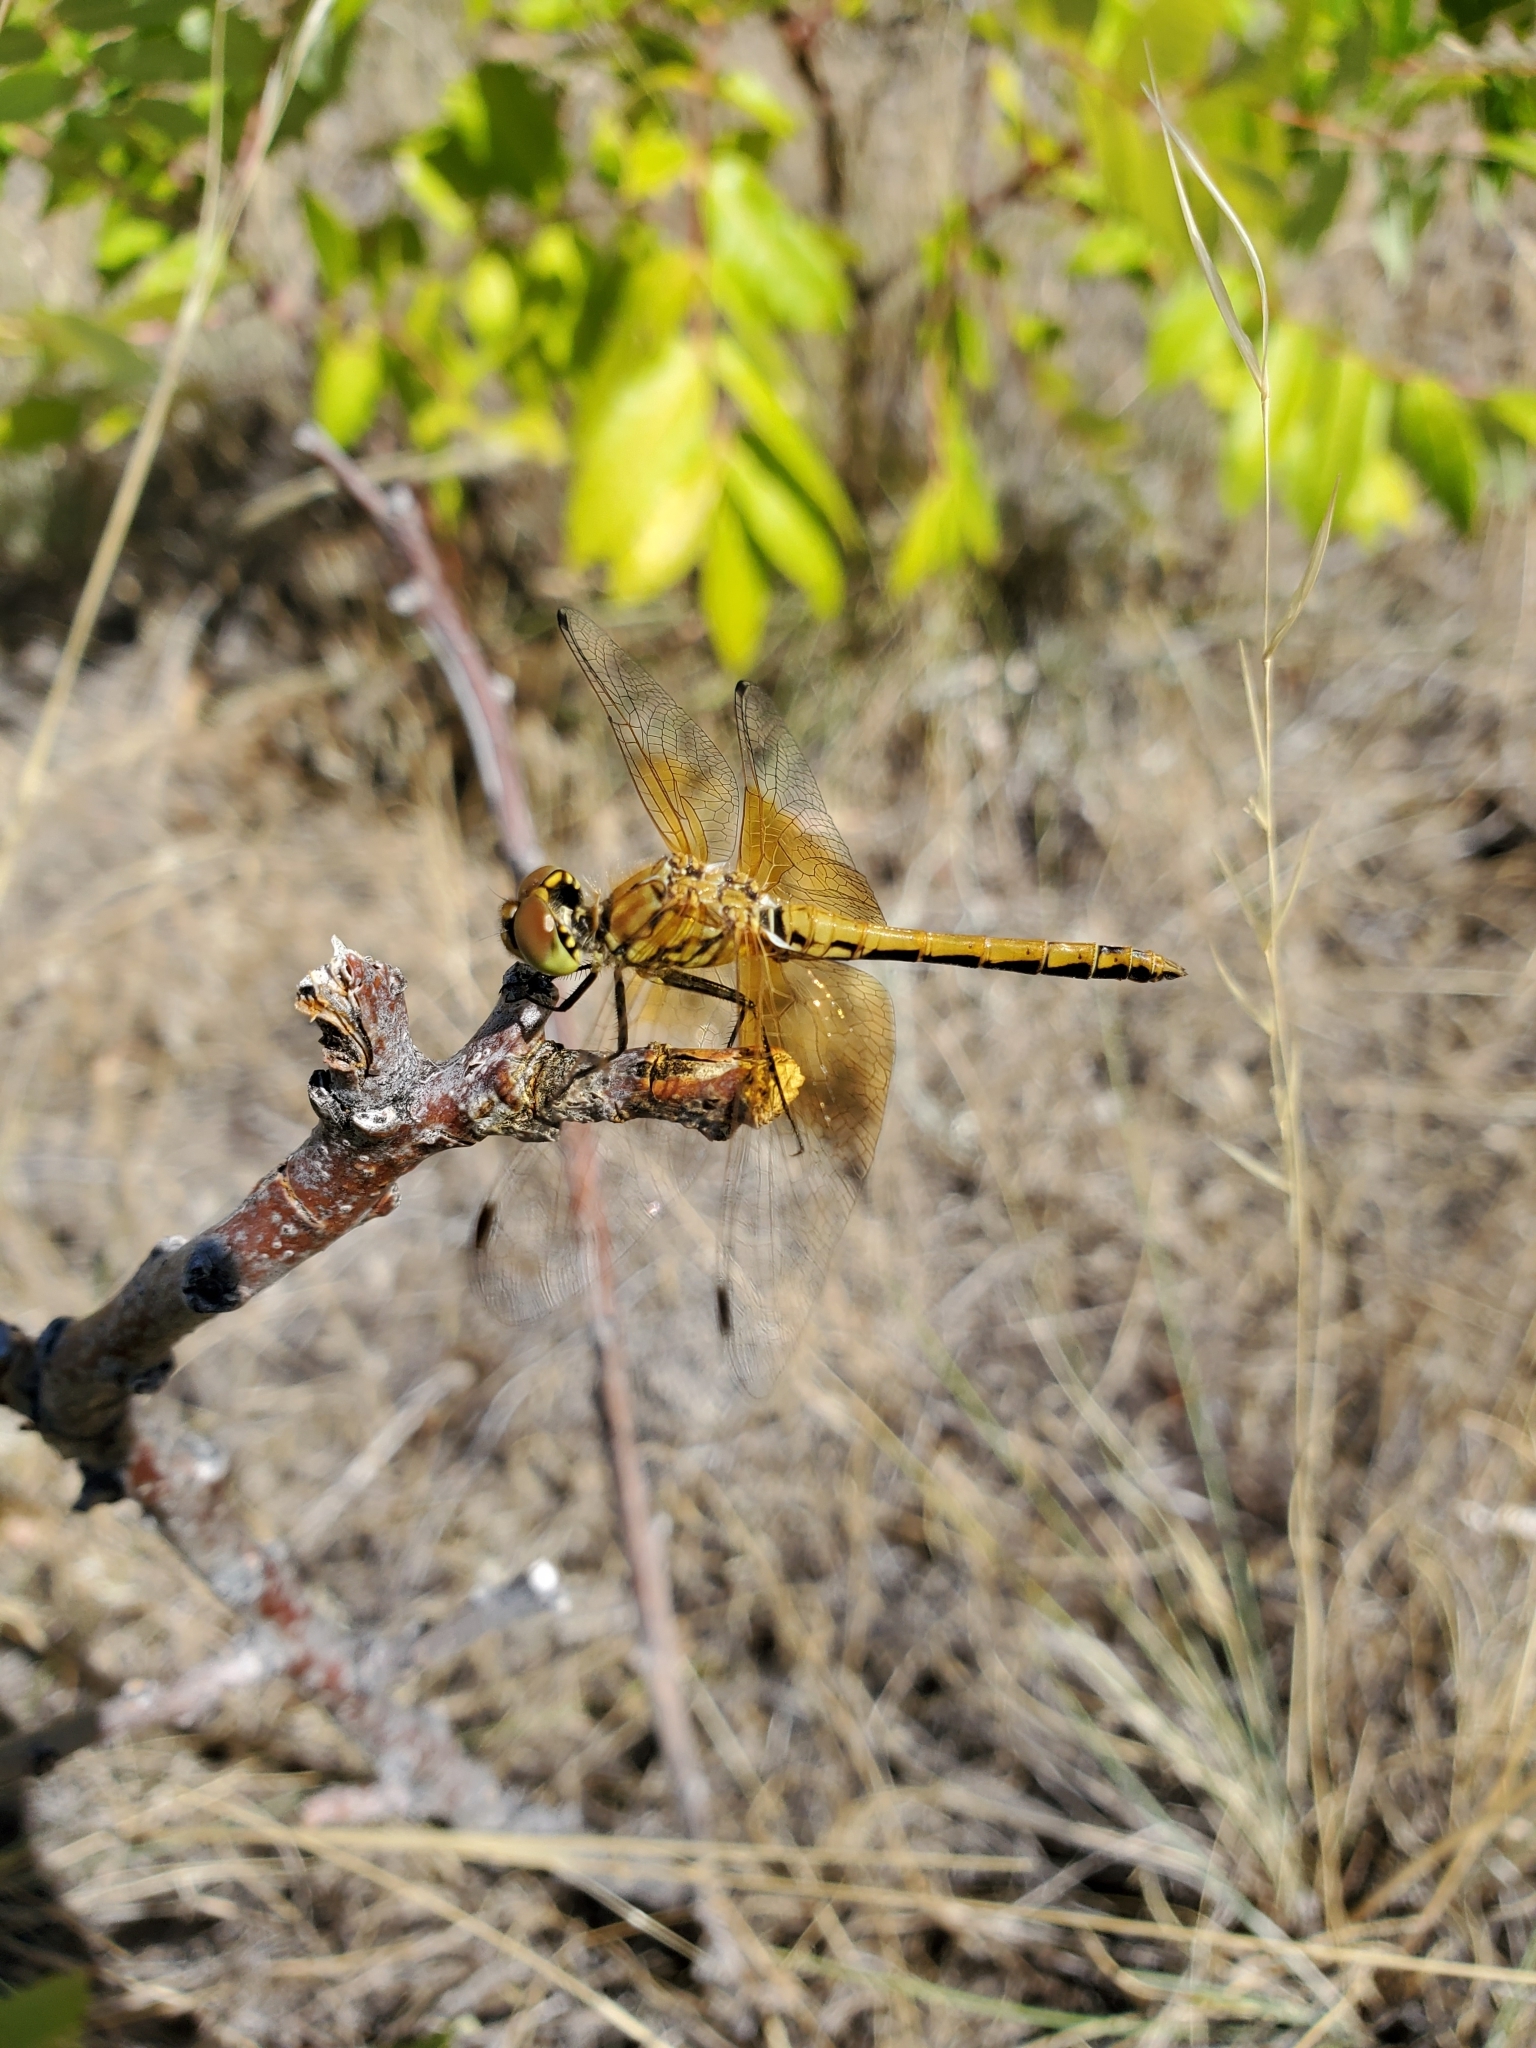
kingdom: Animalia
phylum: Arthropoda
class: Insecta
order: Odonata
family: Libellulidae
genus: Sympetrum
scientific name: Sympetrum semicinctum
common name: Band-winged meadowhawk
